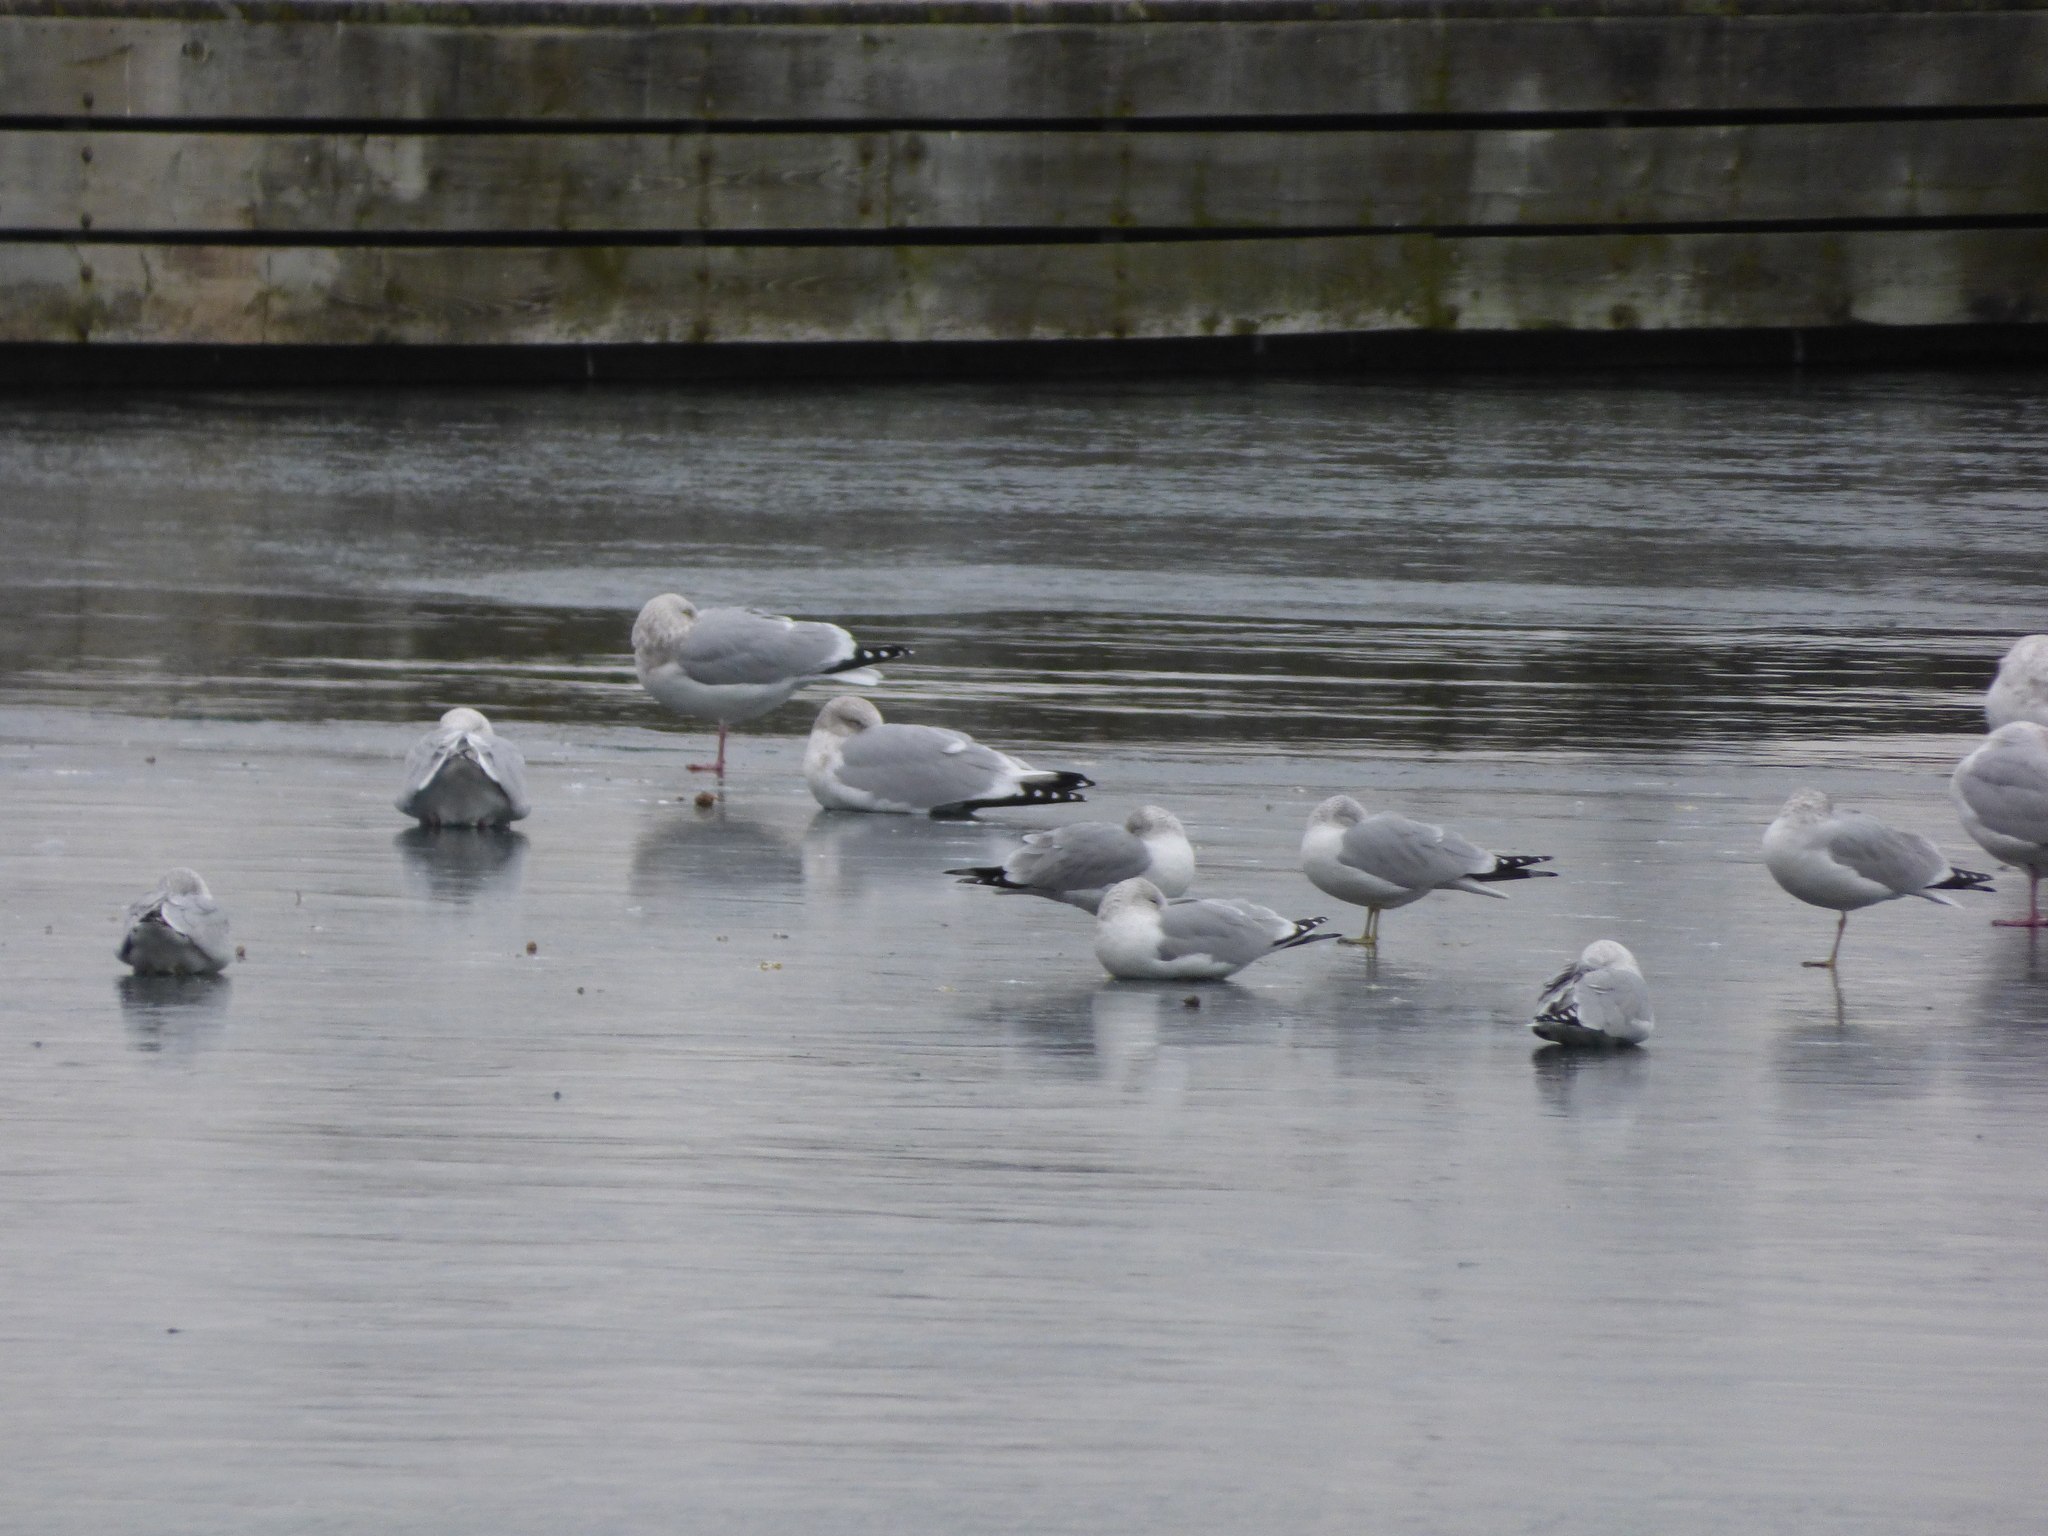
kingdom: Animalia
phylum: Chordata
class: Aves
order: Charadriiformes
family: Laridae
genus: Larus
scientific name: Larus argentatus
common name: Herring gull
